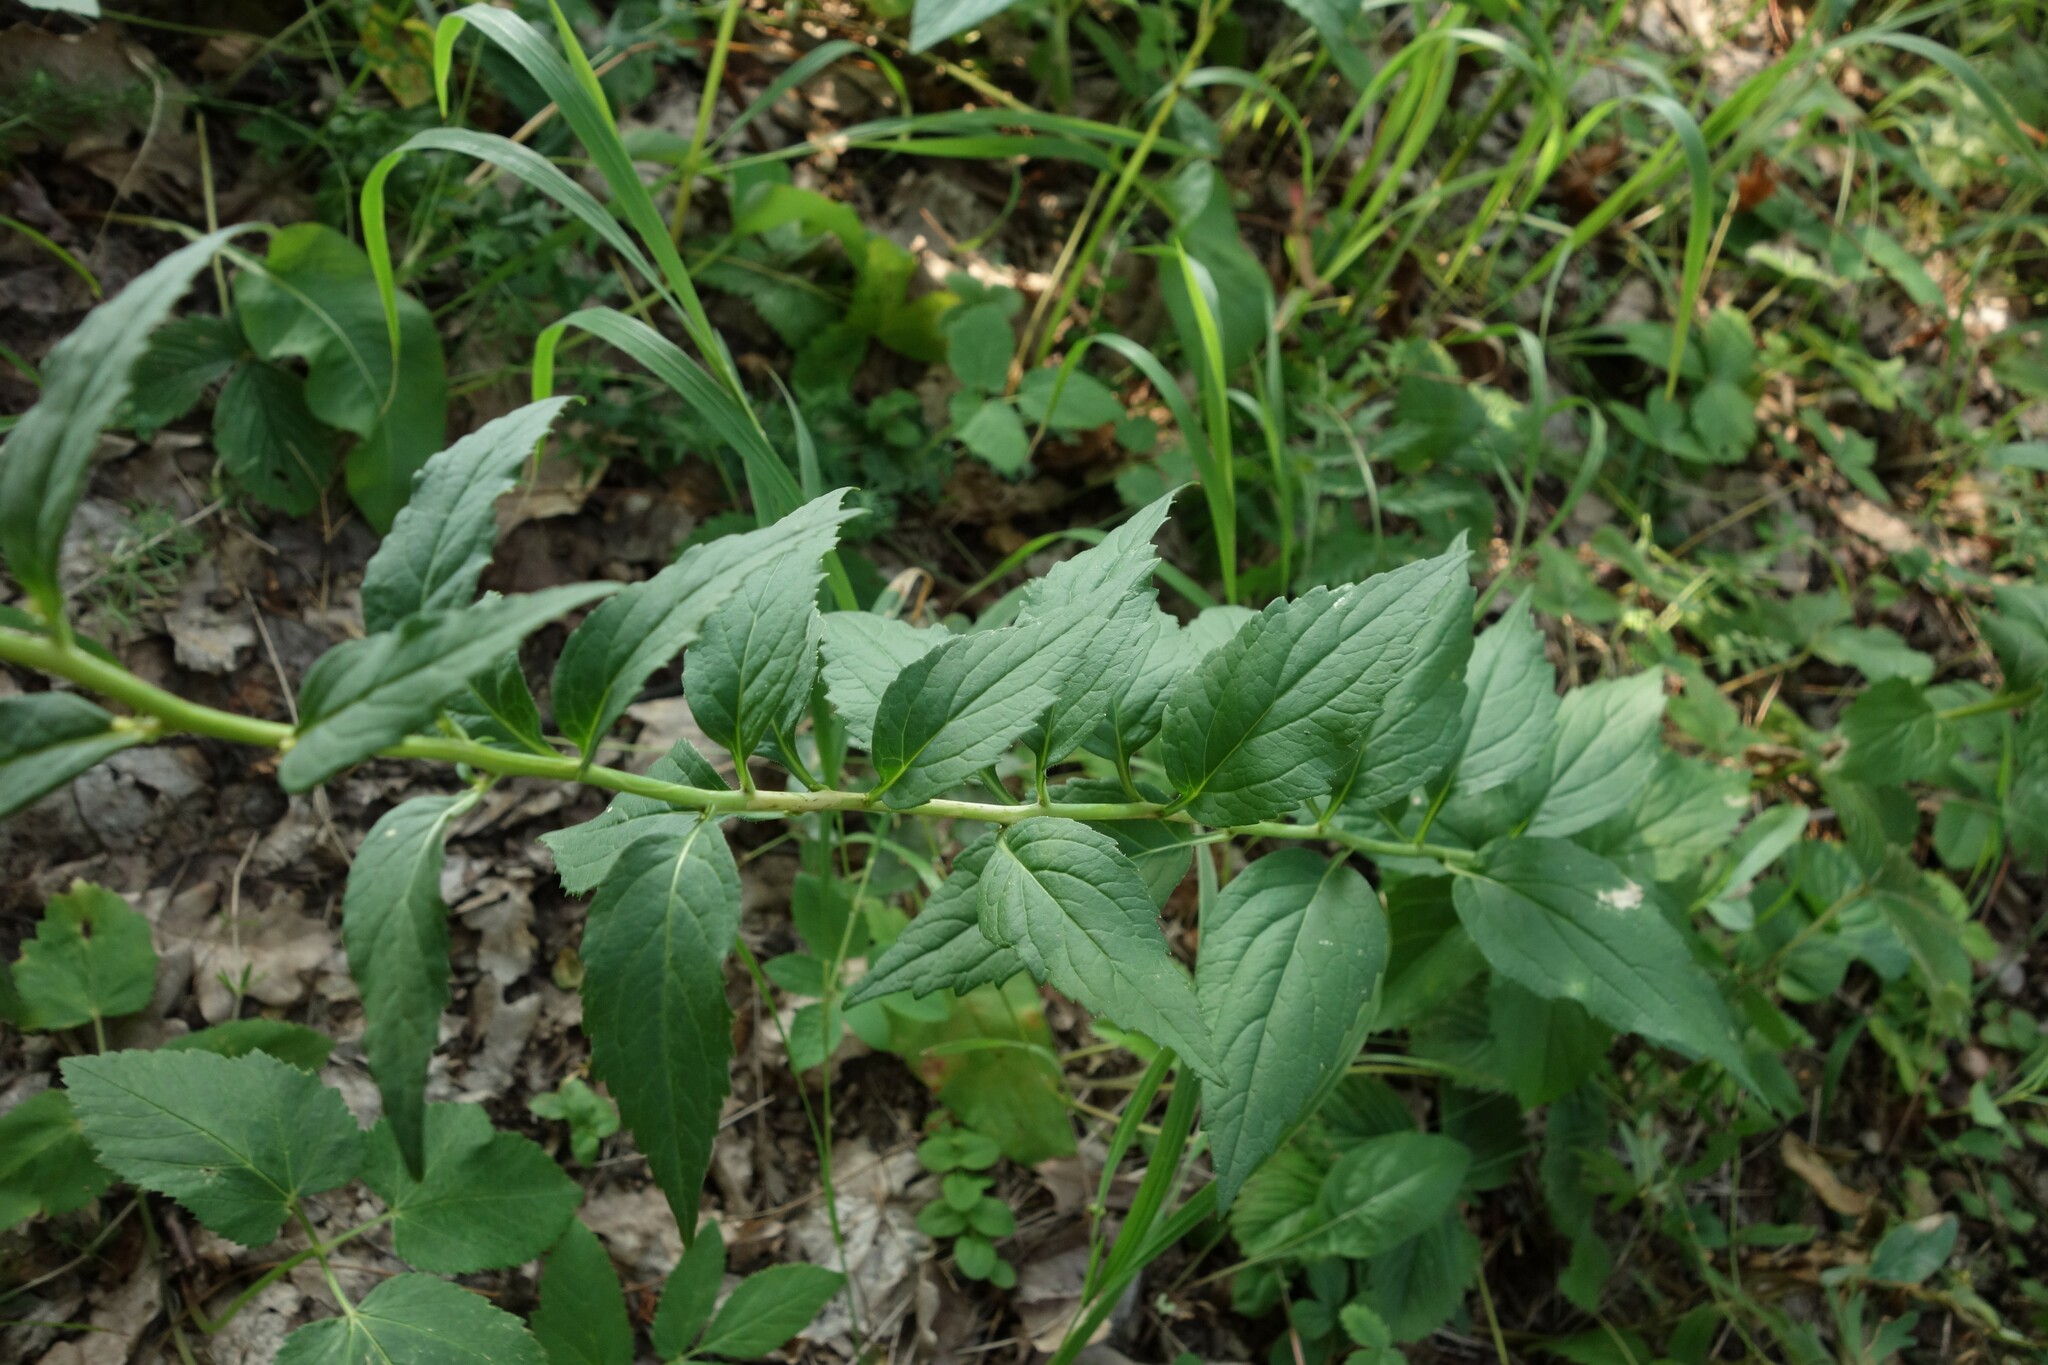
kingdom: Plantae
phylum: Tracheophyta
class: Magnoliopsida
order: Asterales
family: Campanulaceae
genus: Adenophora
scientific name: Adenophora liliifolia
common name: Lilyleaf ladybells
